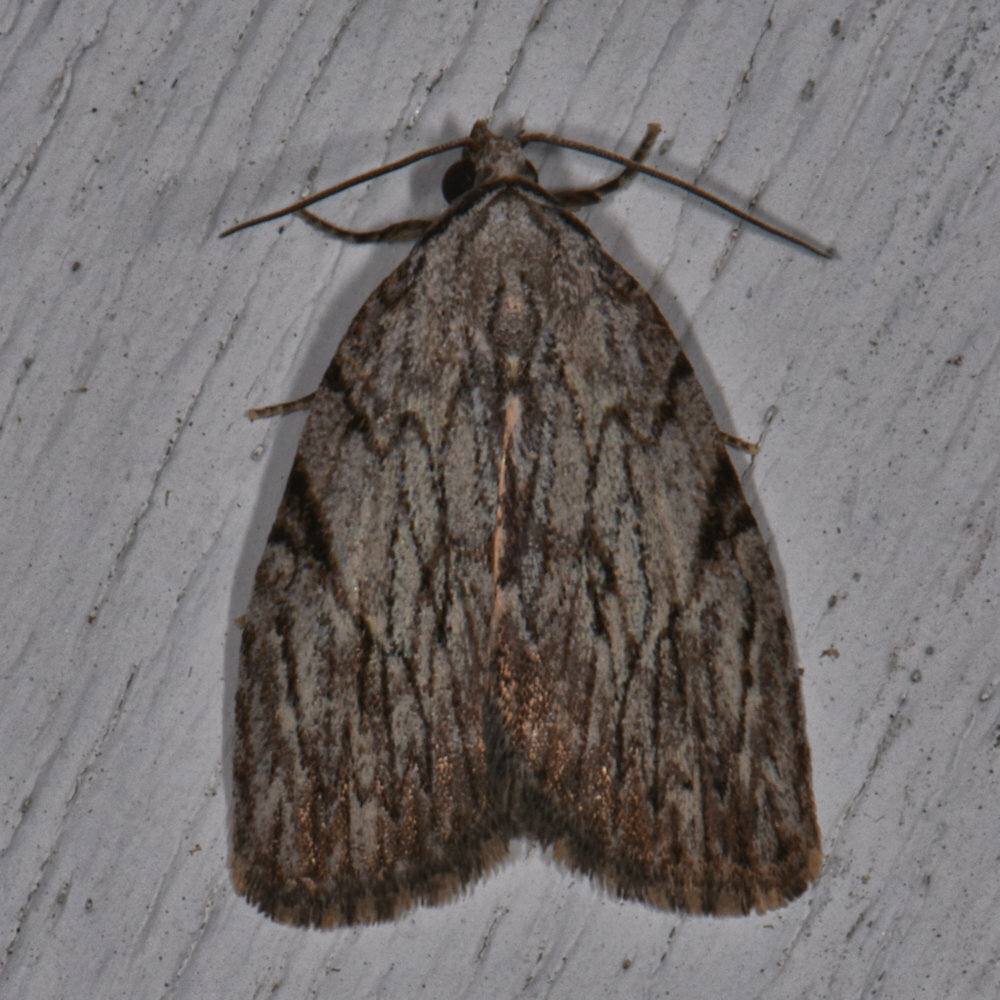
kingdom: Animalia
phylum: Arthropoda
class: Insecta
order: Lepidoptera
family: Noctuidae
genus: Balsa
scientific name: Balsa tristrigella
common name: Three-lined balsa moth
